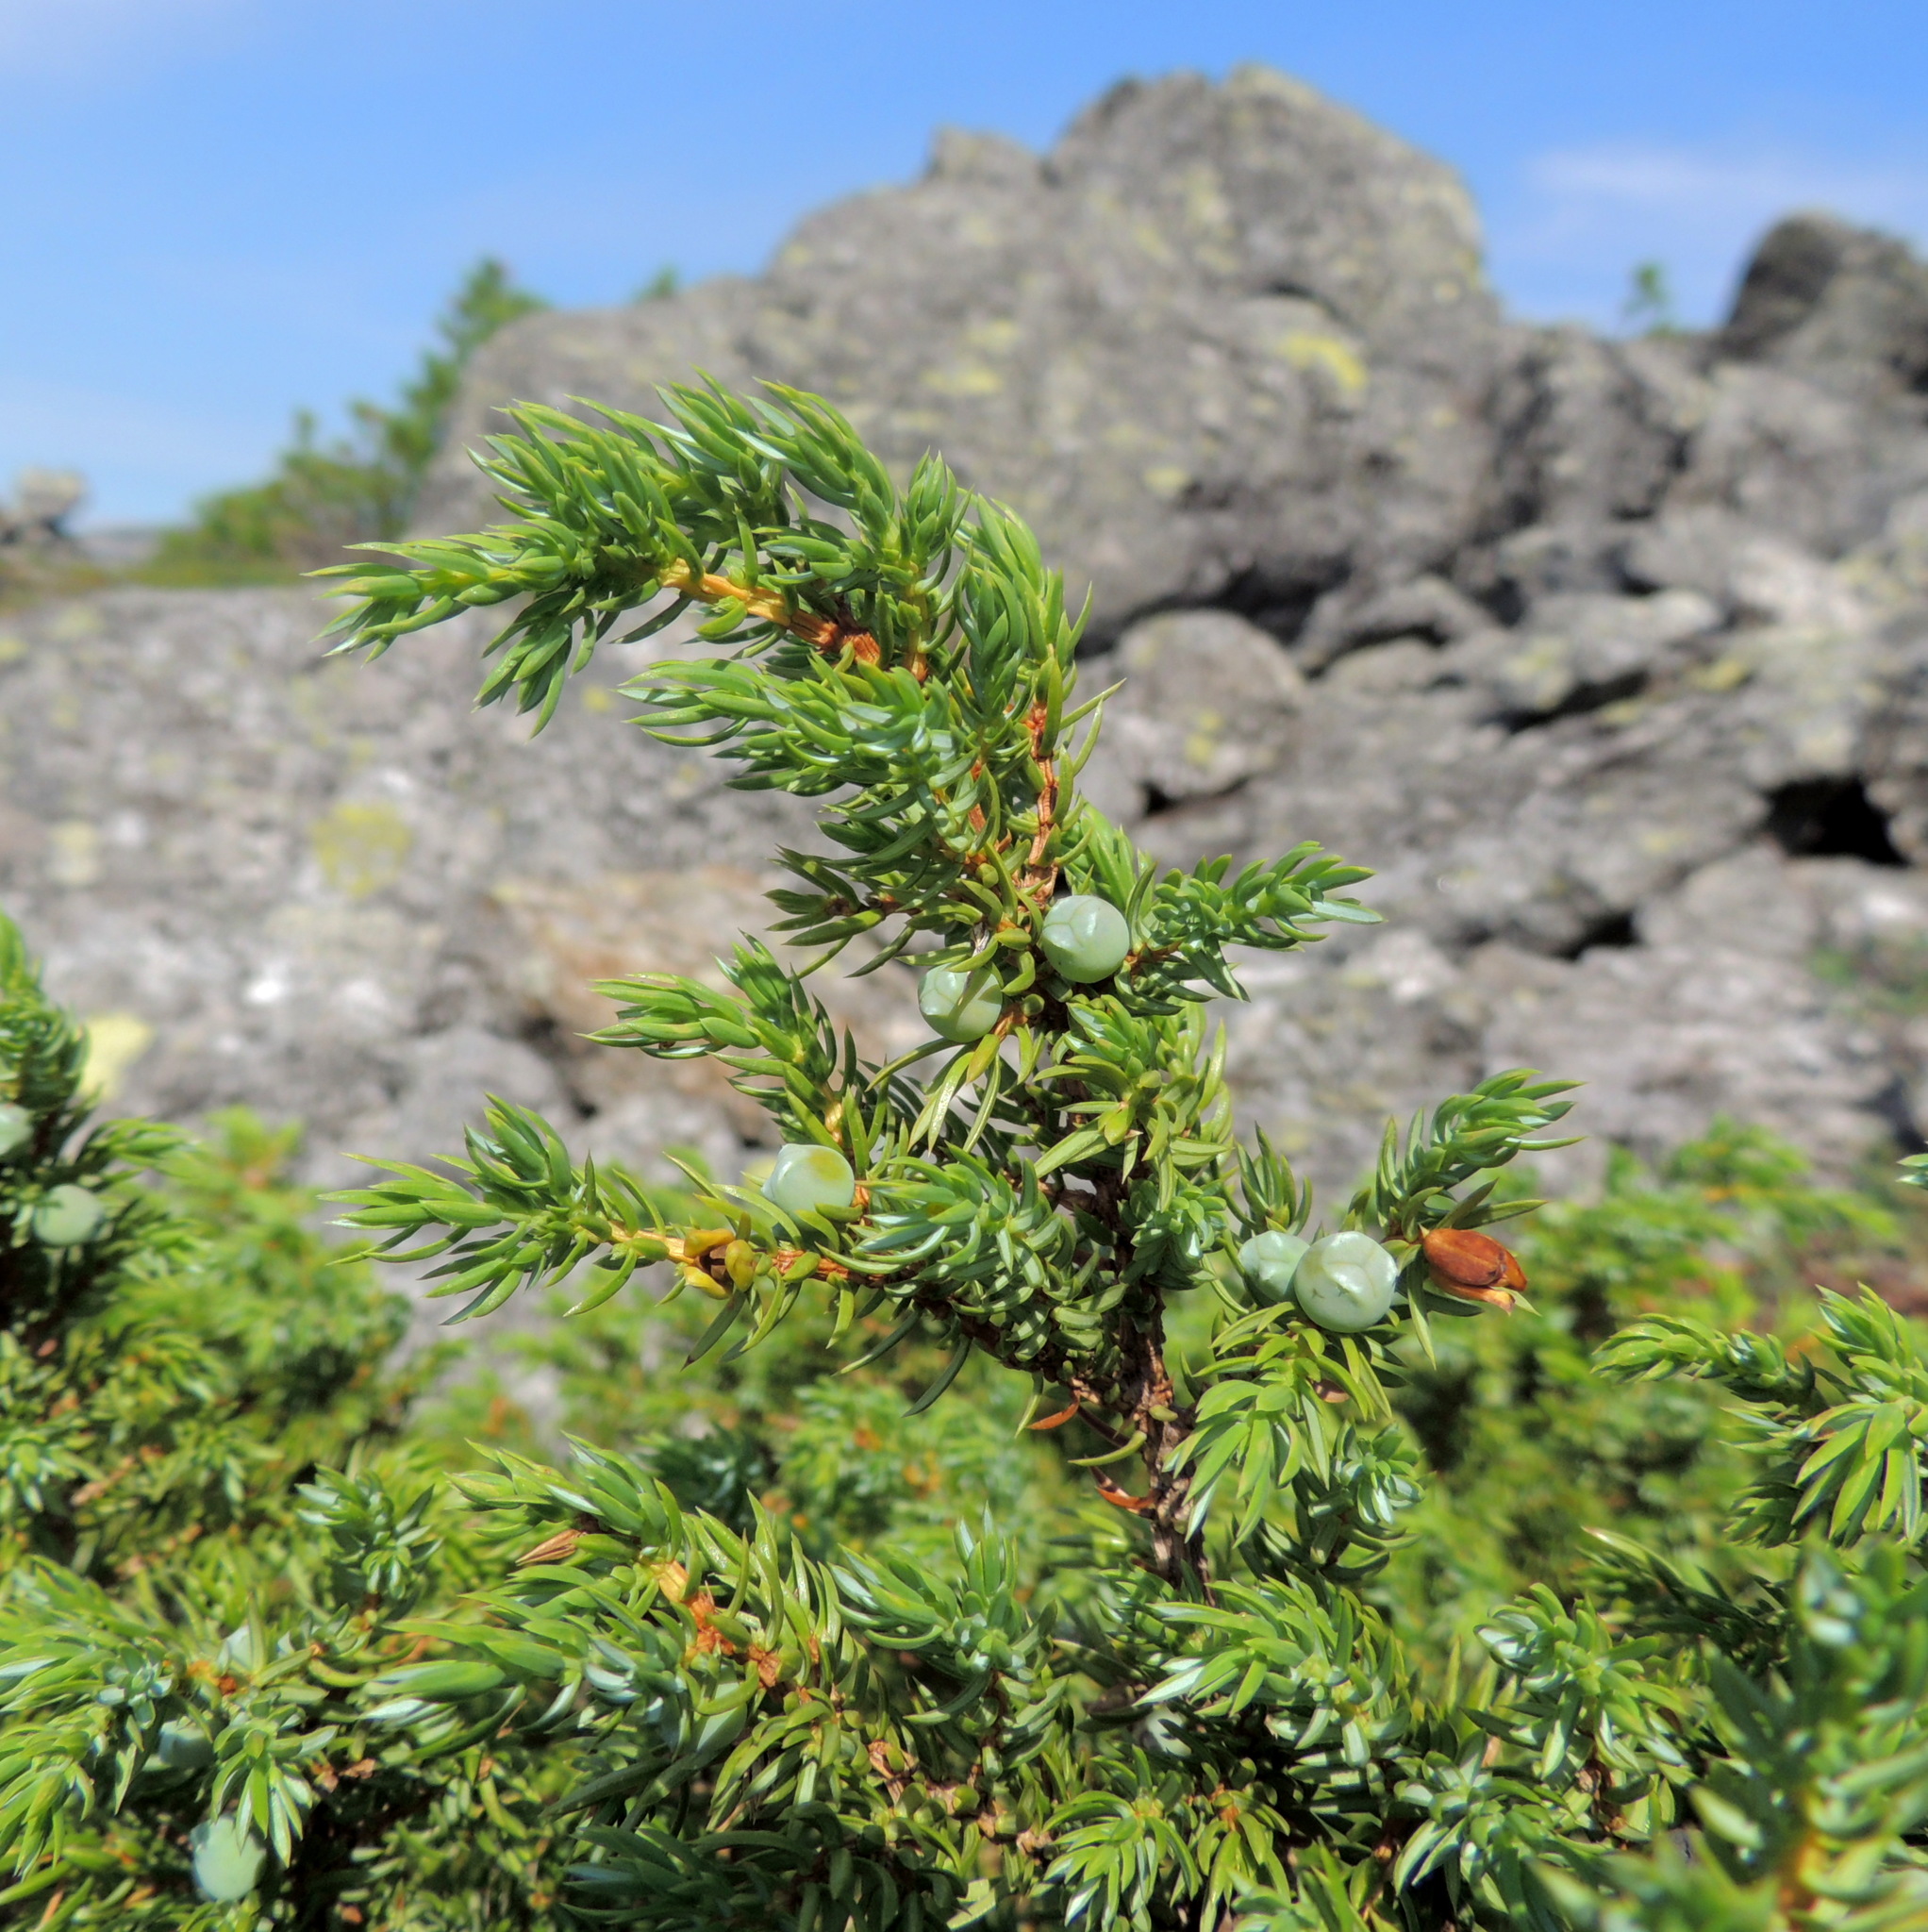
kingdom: Plantae
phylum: Tracheophyta
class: Pinopsida
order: Pinales
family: Cupressaceae
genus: Juniperus
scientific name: Juniperus communis
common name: Common juniper
